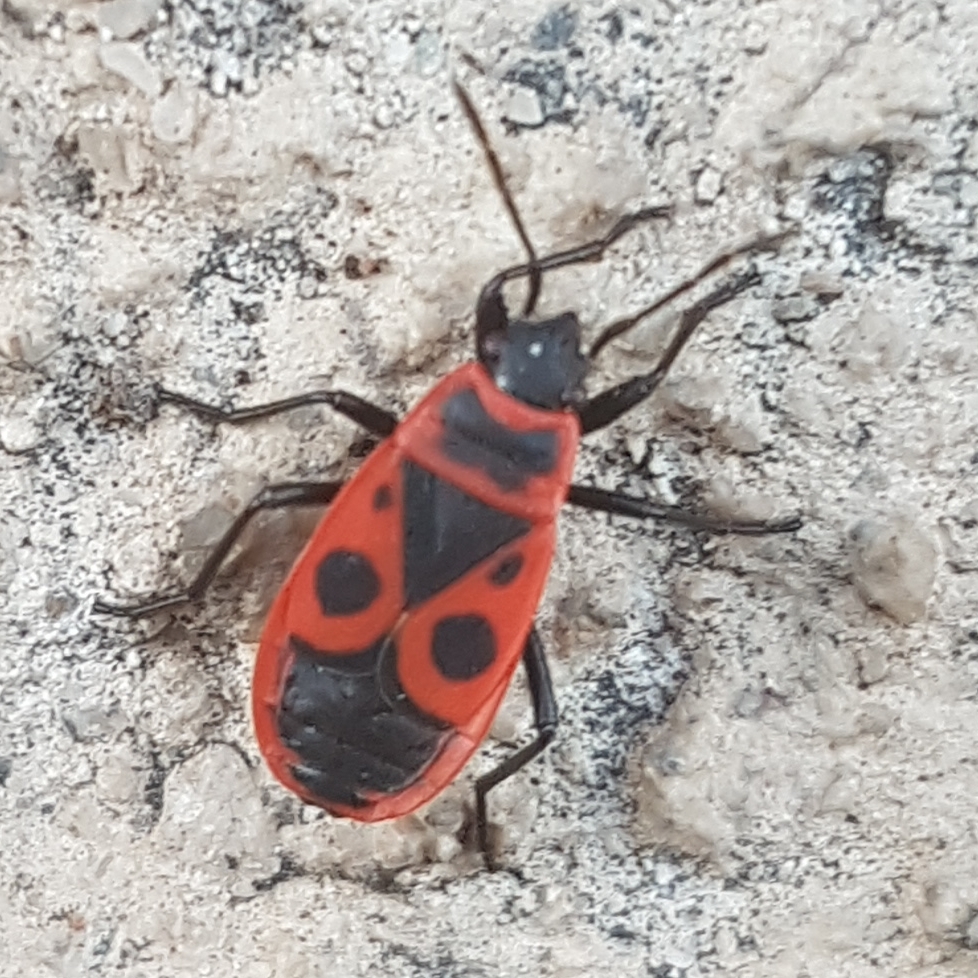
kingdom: Animalia
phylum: Arthropoda
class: Insecta
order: Hemiptera
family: Pyrrhocoridae
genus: Pyrrhocoris
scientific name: Pyrrhocoris apterus
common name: Firebug
